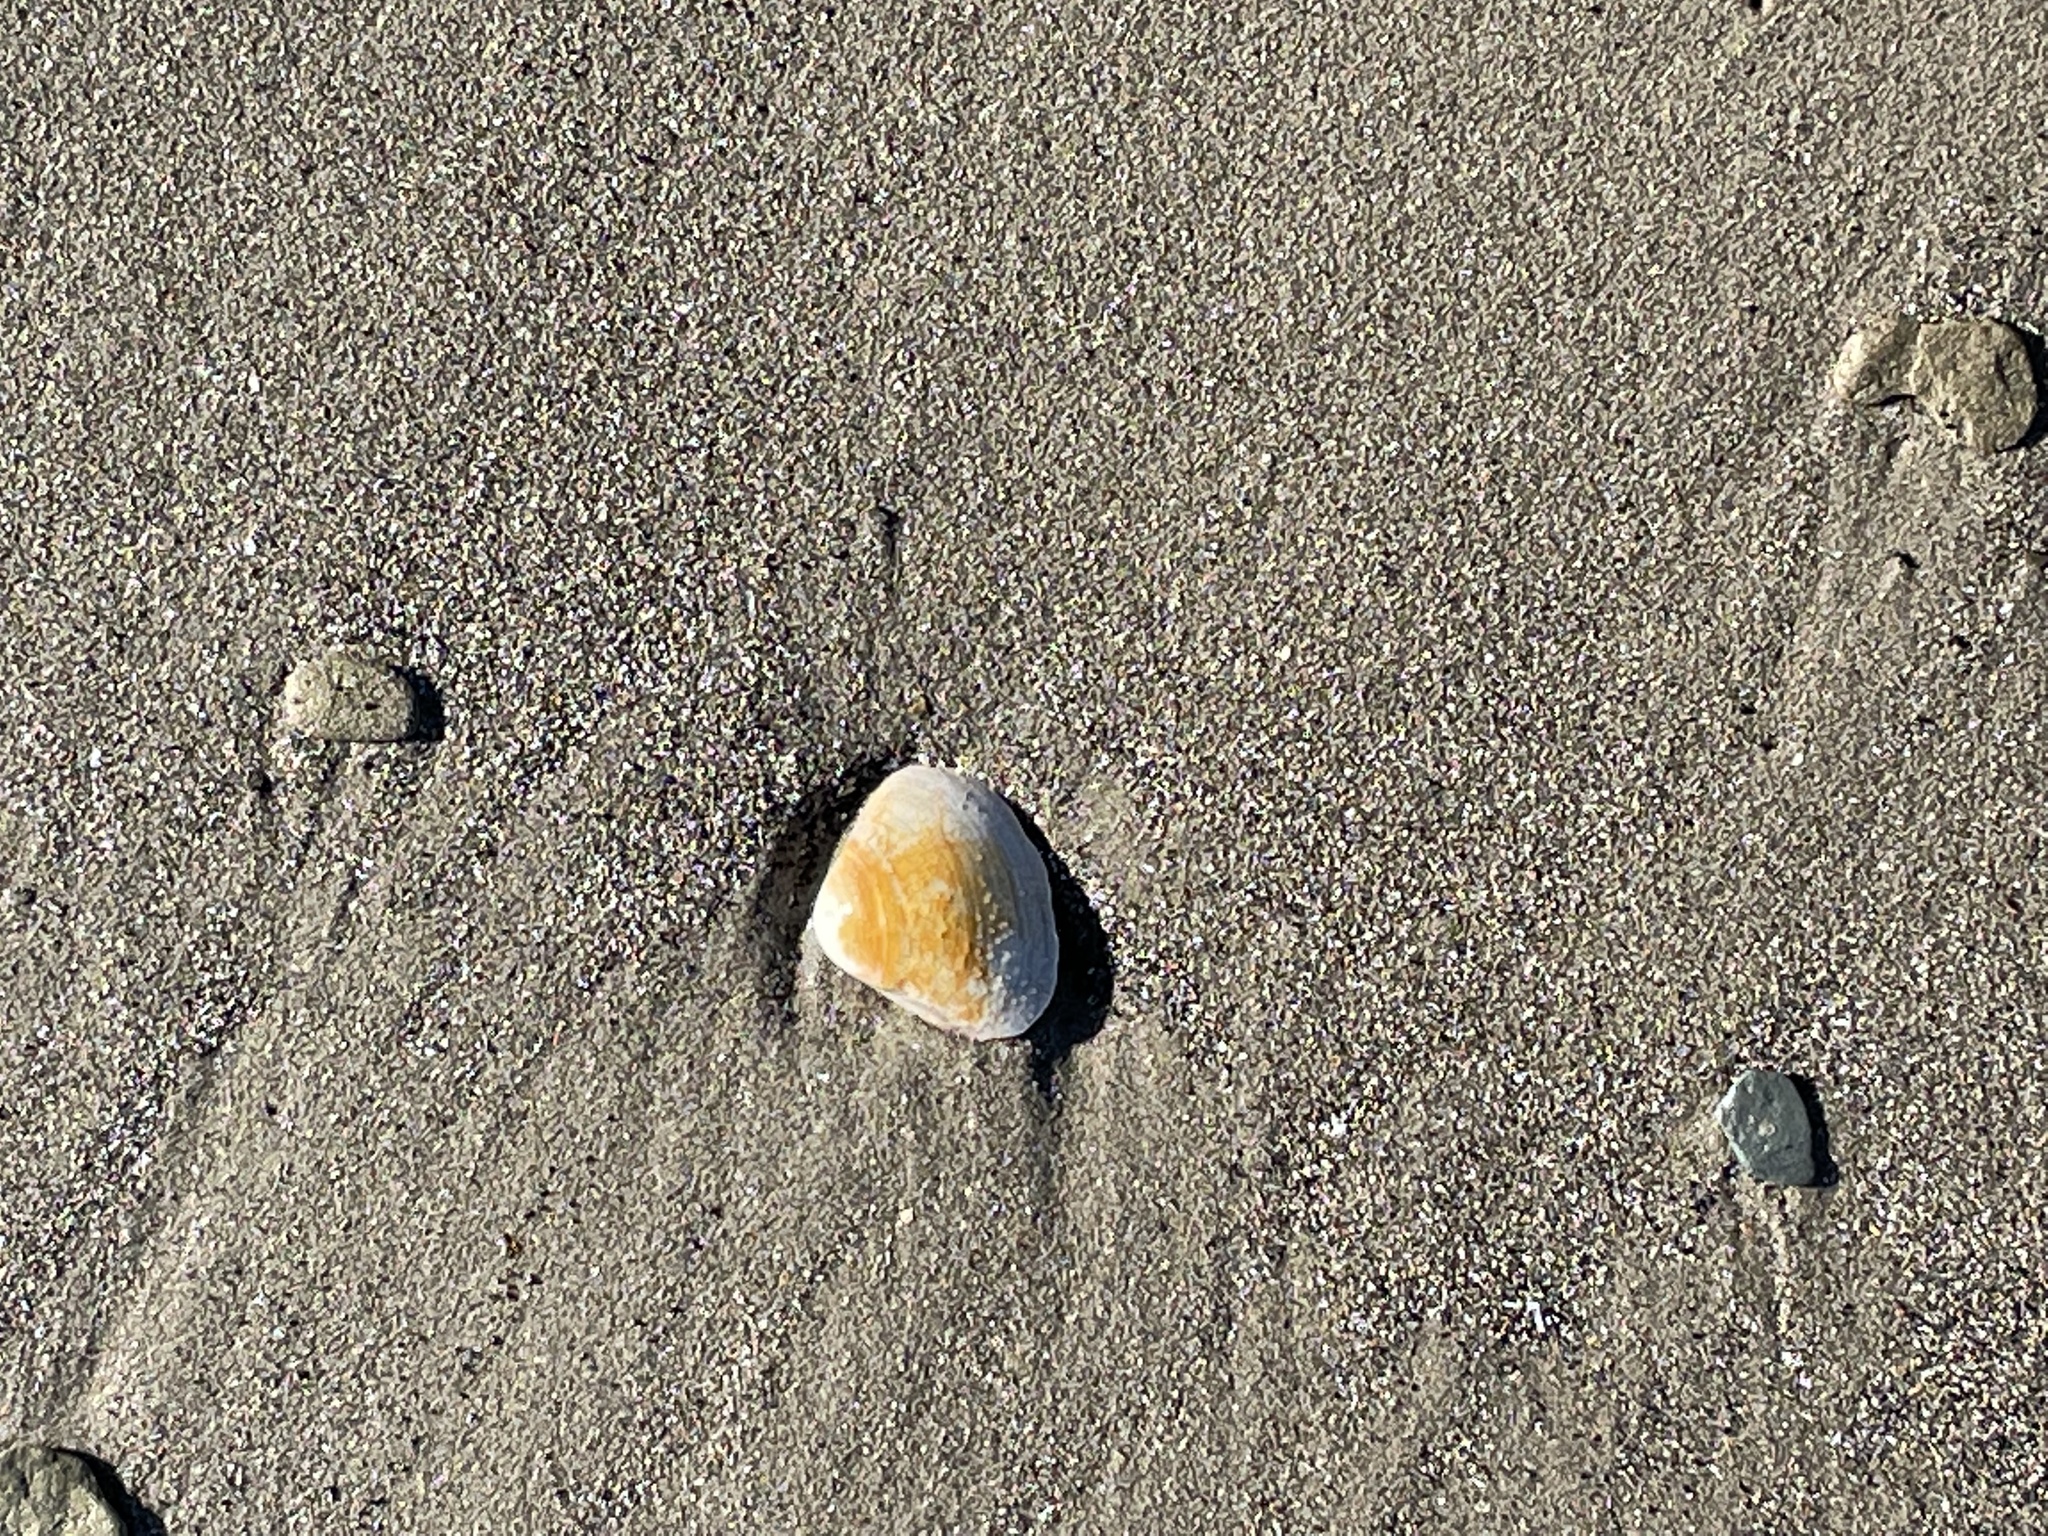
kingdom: Animalia
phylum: Mollusca
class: Bivalvia
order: Venerida
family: Mactridae
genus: Spisula
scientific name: Spisula solidissima
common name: Atlantic surf clam
